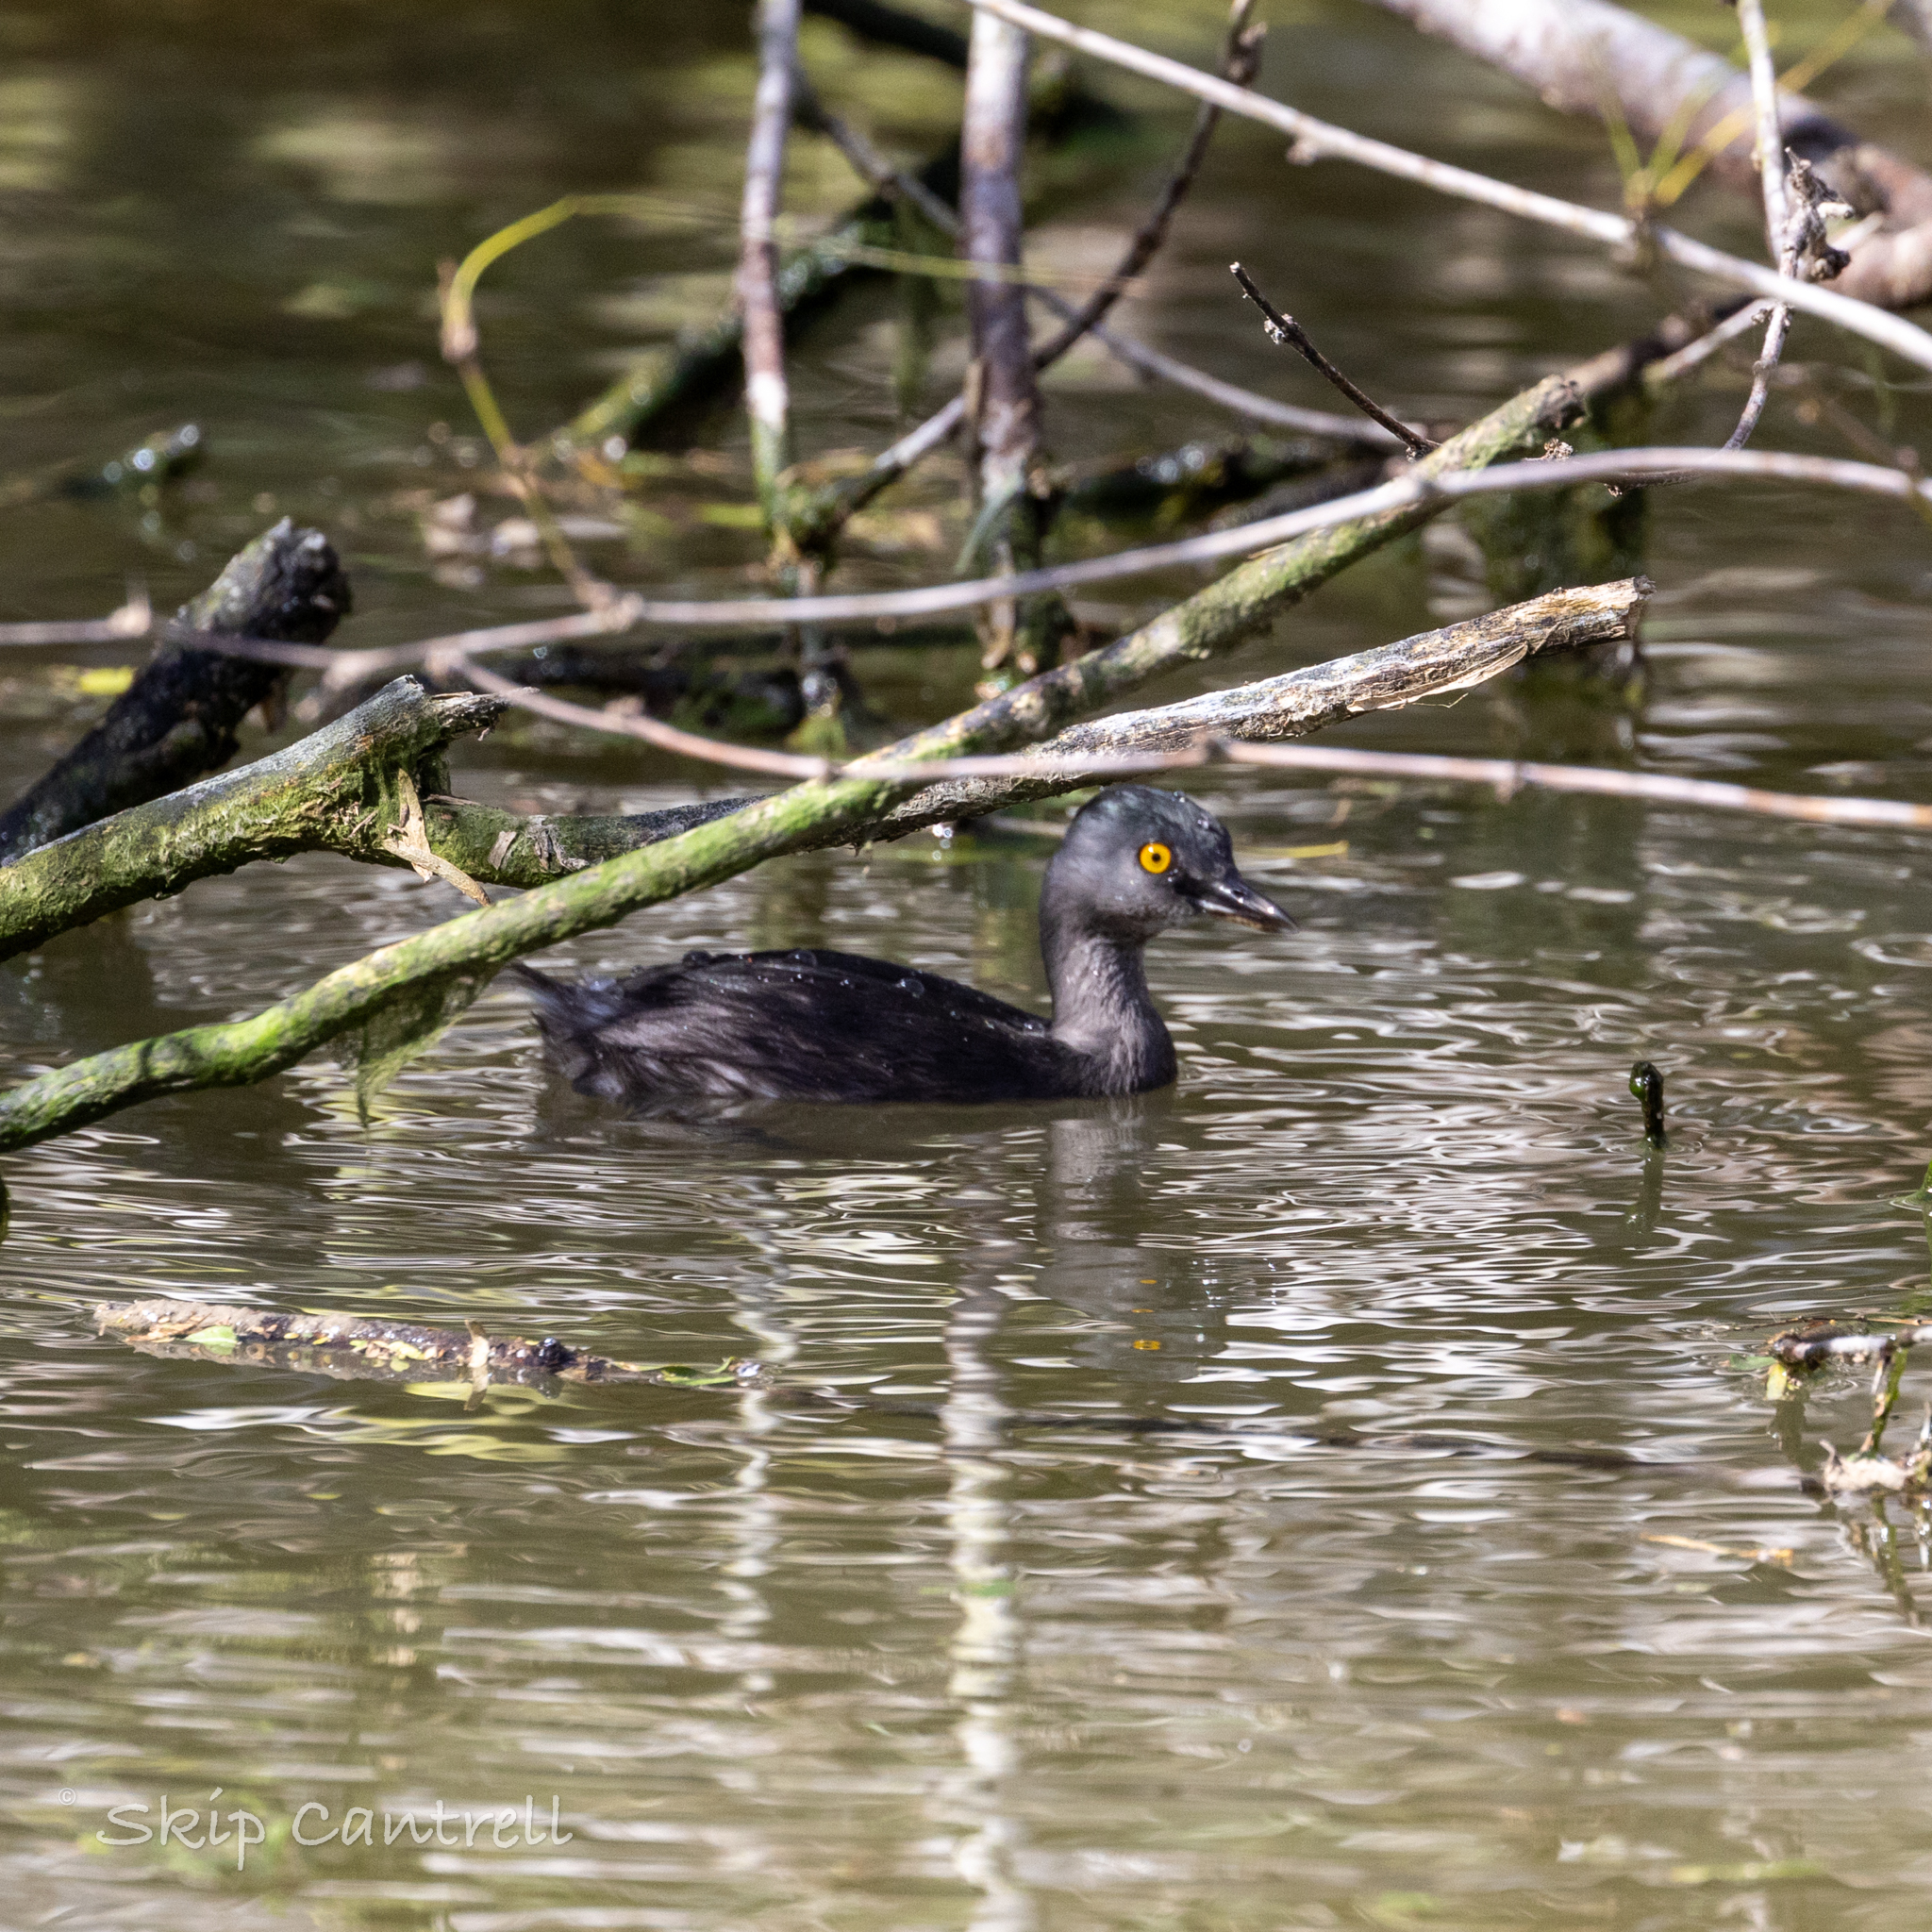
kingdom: Animalia
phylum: Chordata
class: Aves
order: Podicipediformes
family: Podicipedidae
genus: Tachybaptus
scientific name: Tachybaptus dominicus
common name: Least grebe
